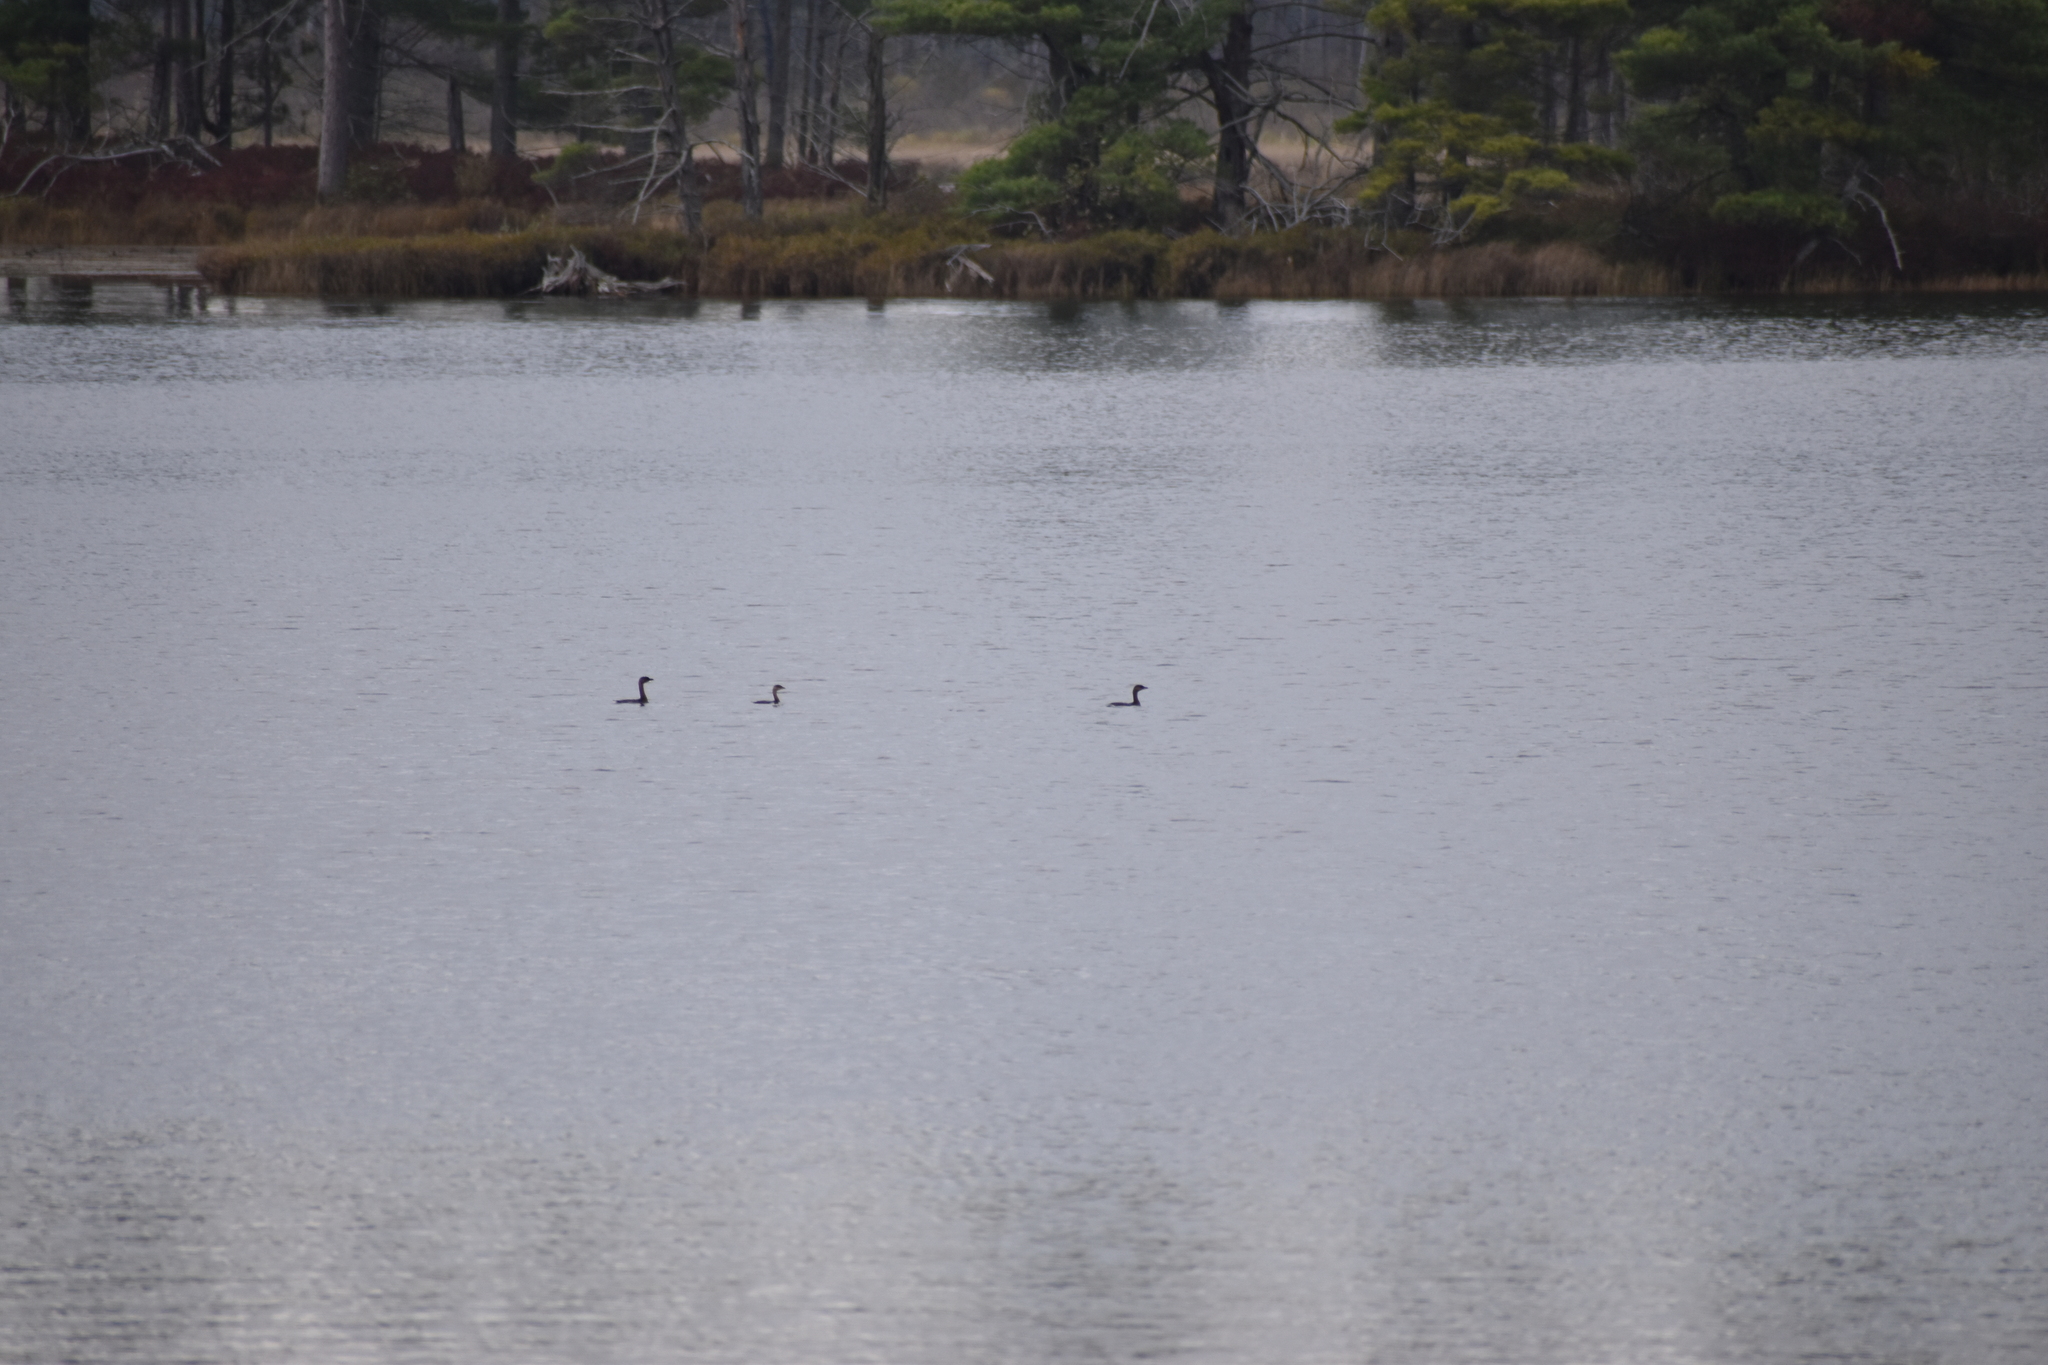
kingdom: Animalia
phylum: Chordata
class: Aves
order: Podicipediformes
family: Podicipedidae
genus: Podilymbus
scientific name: Podilymbus podiceps
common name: Pied-billed grebe
